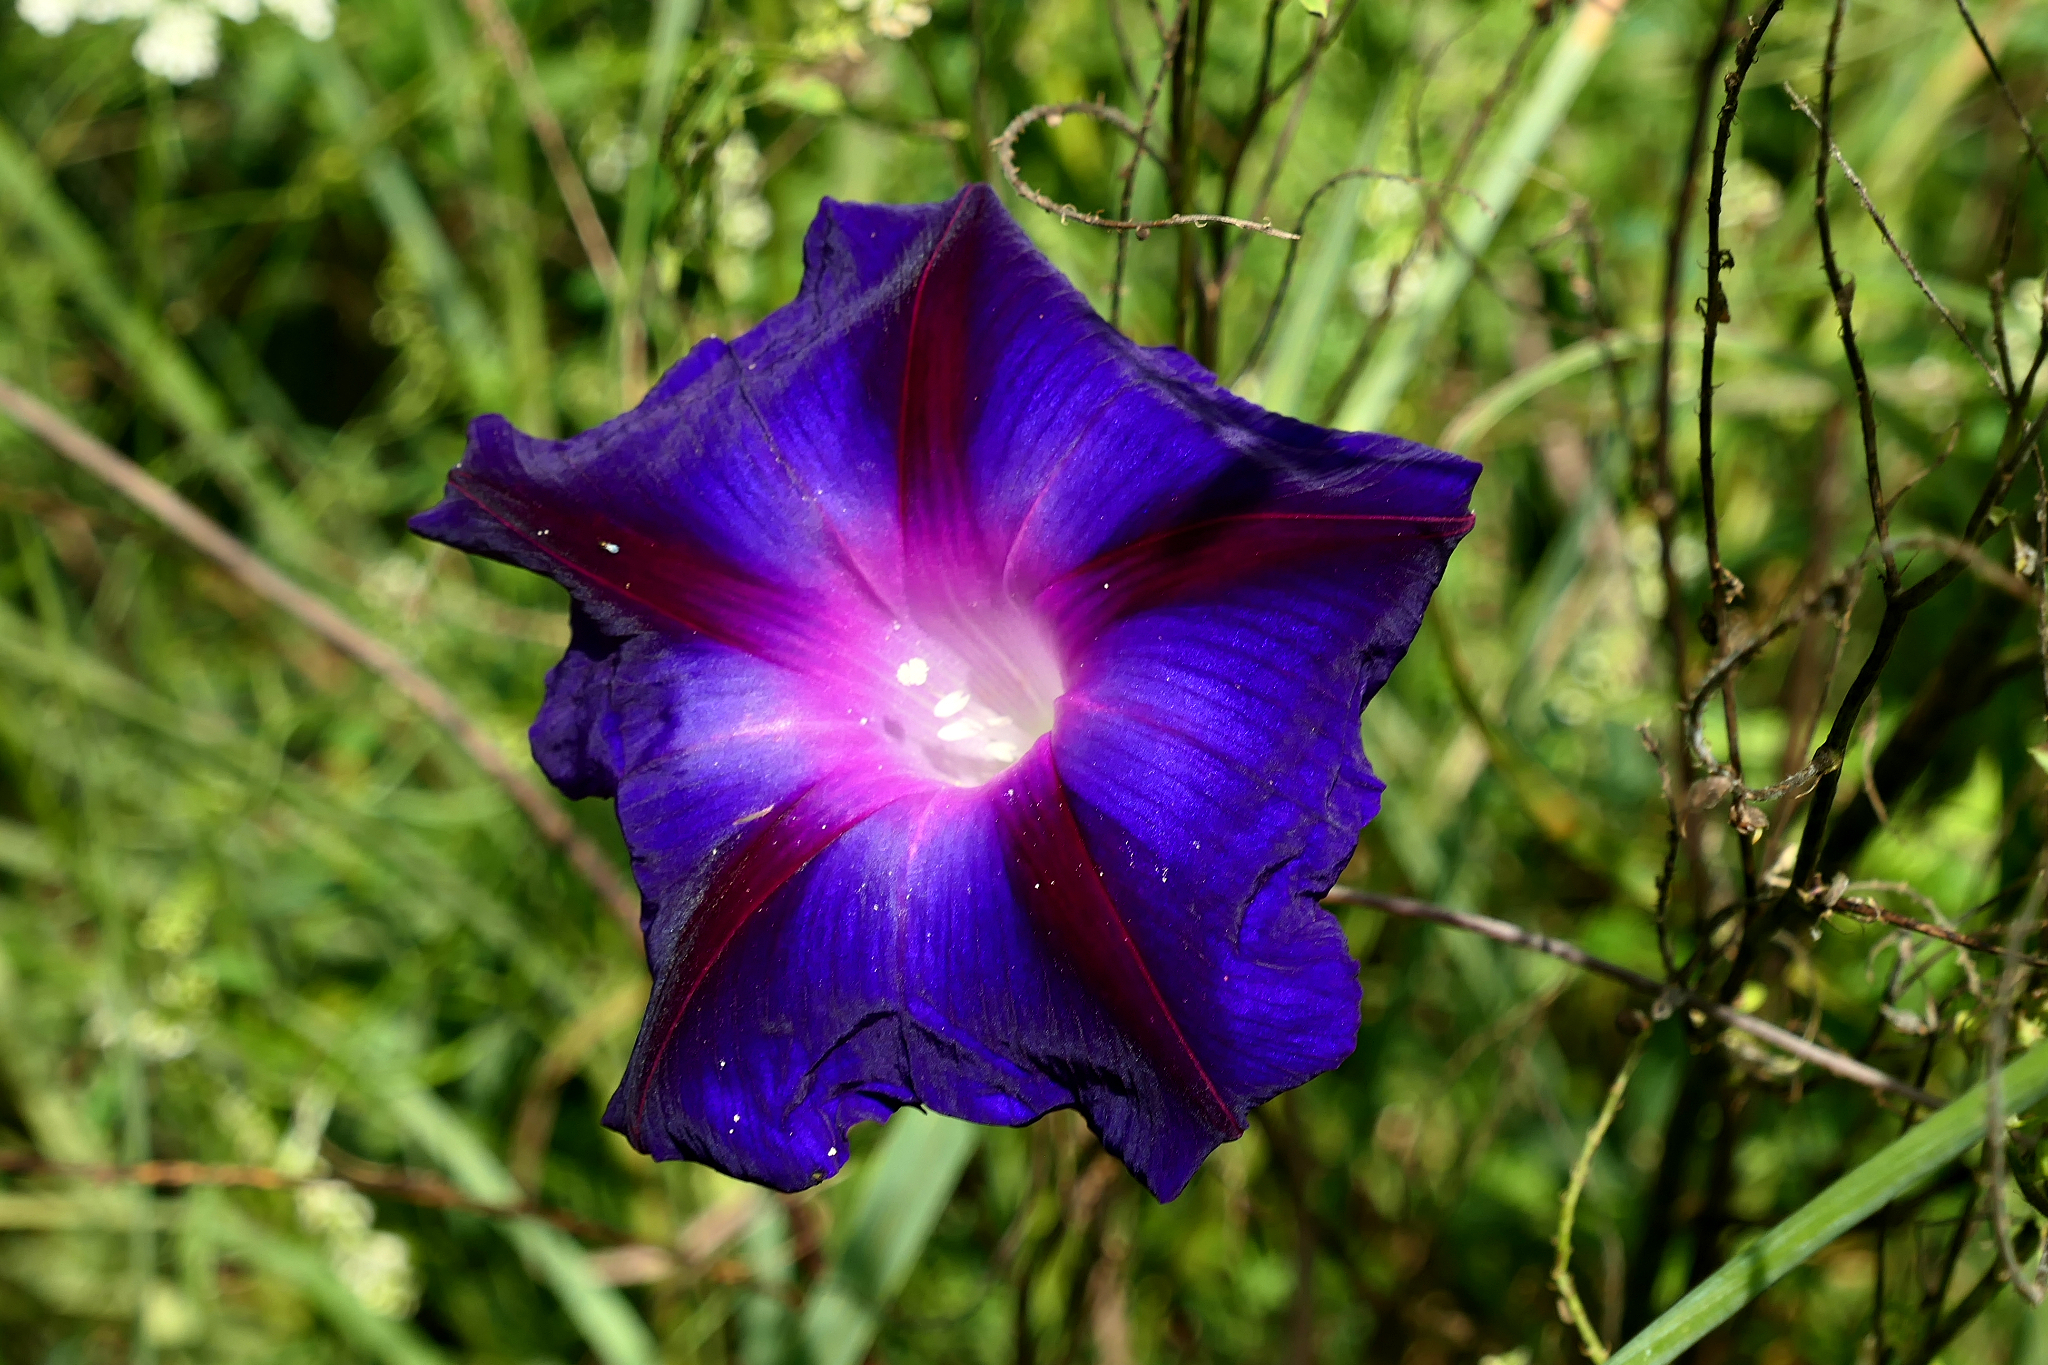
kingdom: Plantae
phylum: Tracheophyta
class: Magnoliopsida
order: Solanales
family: Convolvulaceae
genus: Ipomoea
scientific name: Ipomoea purpurea
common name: Common morning-glory
